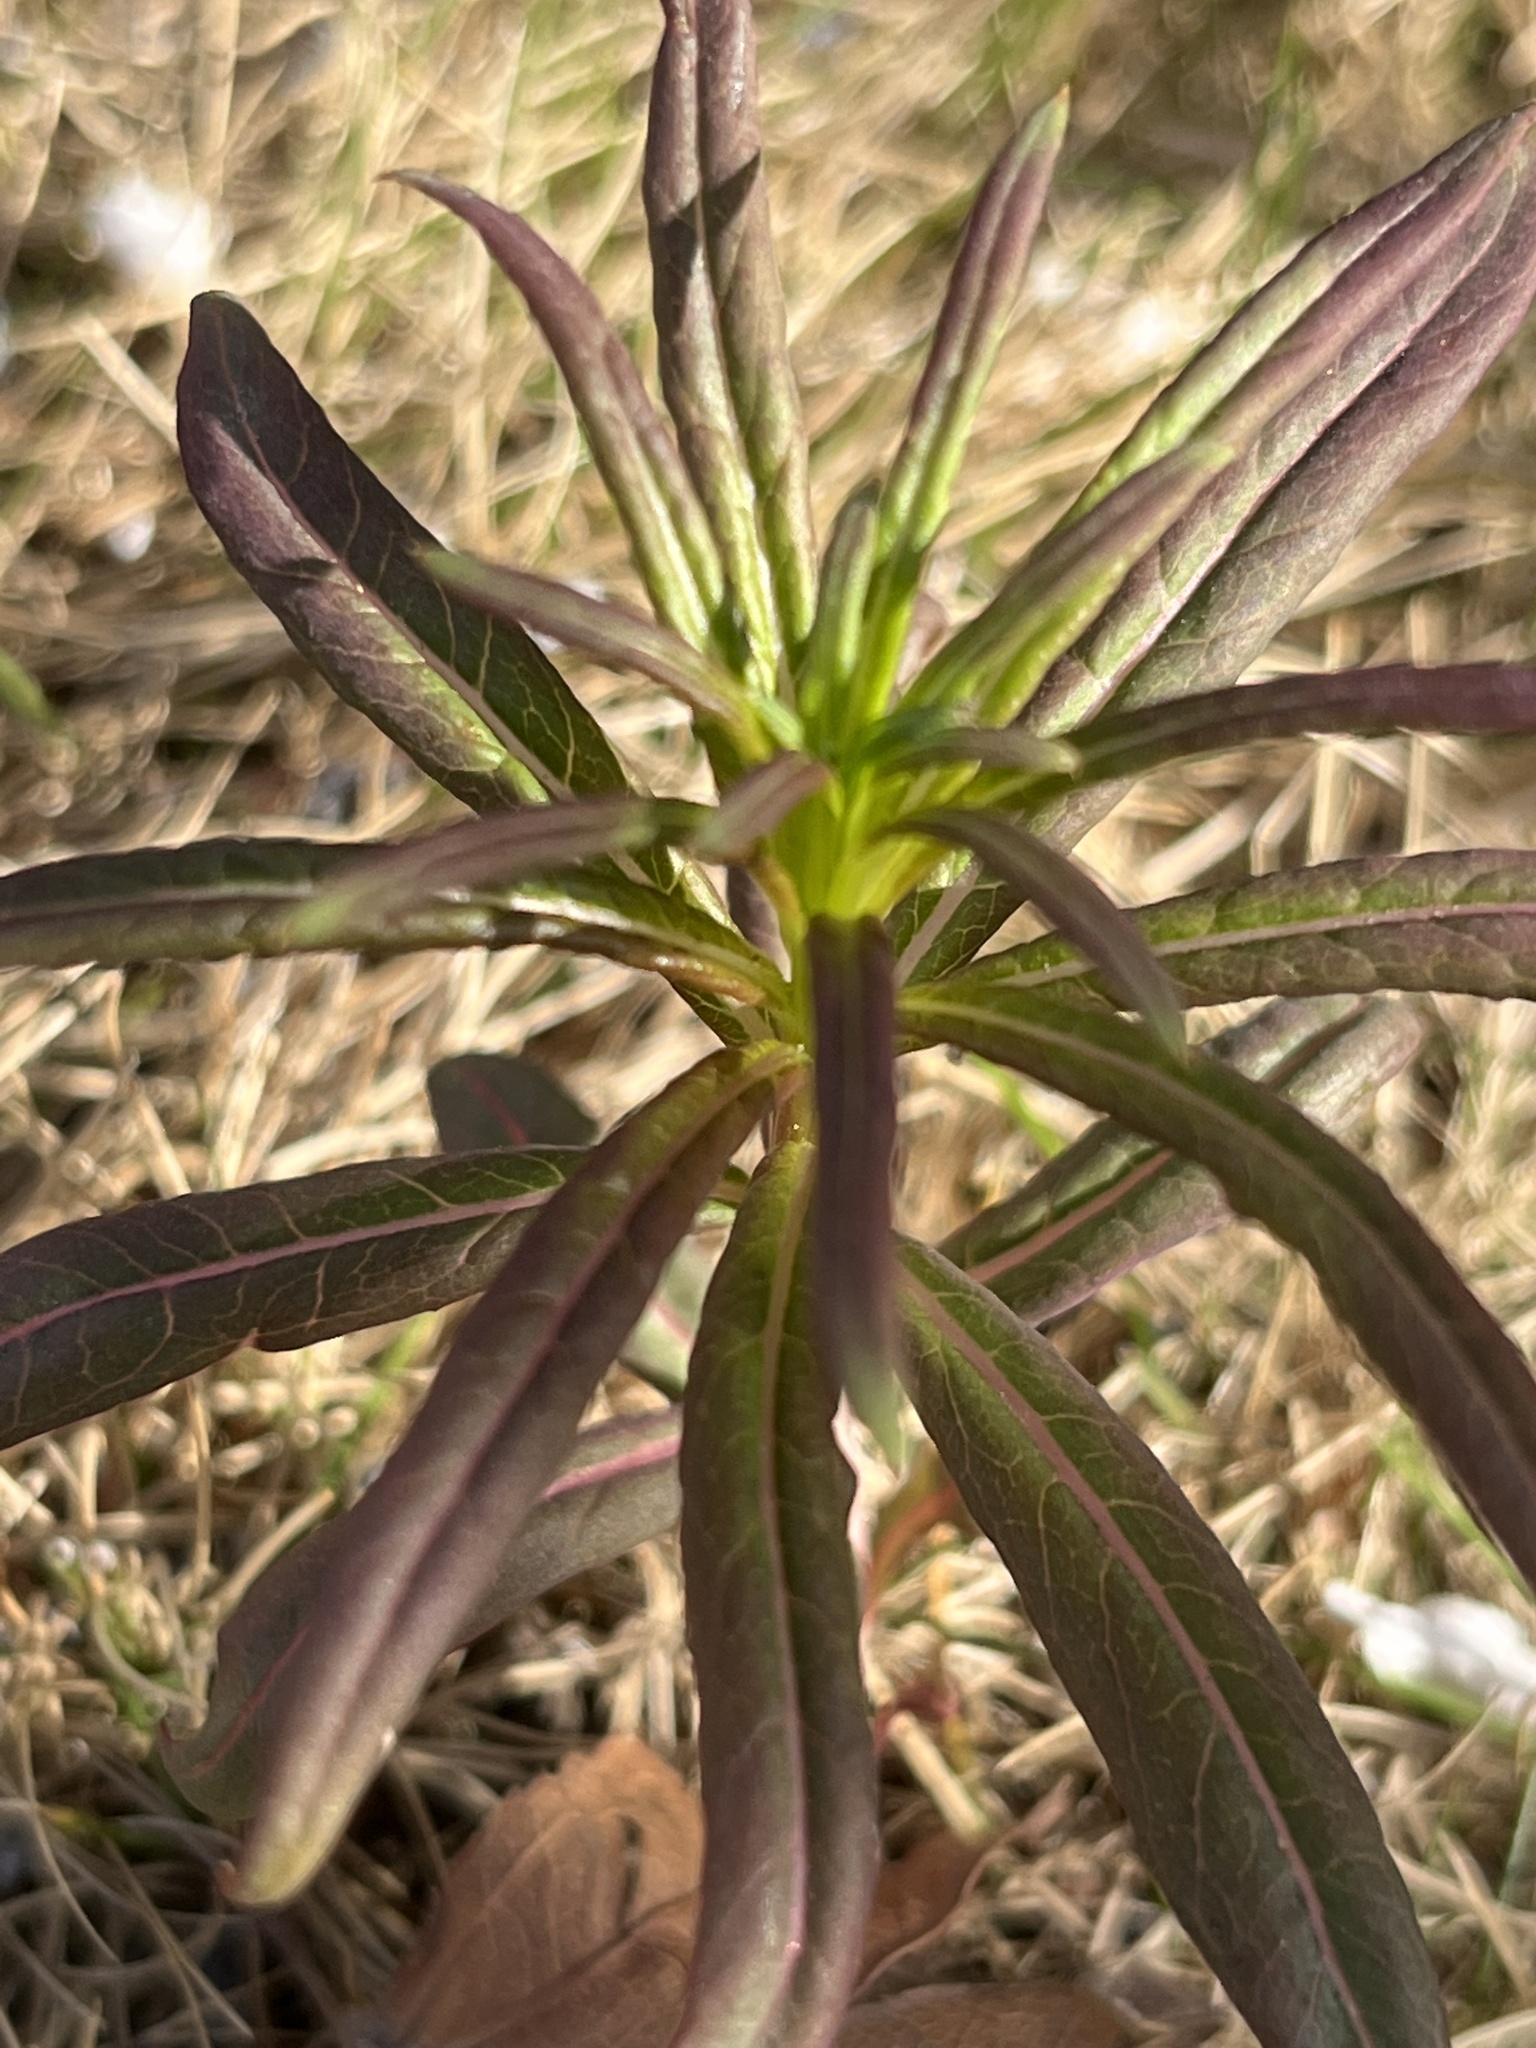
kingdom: Plantae
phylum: Tracheophyta
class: Magnoliopsida
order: Myrtales
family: Onagraceae
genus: Chamaenerion
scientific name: Chamaenerion angustifolium
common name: Fireweed
